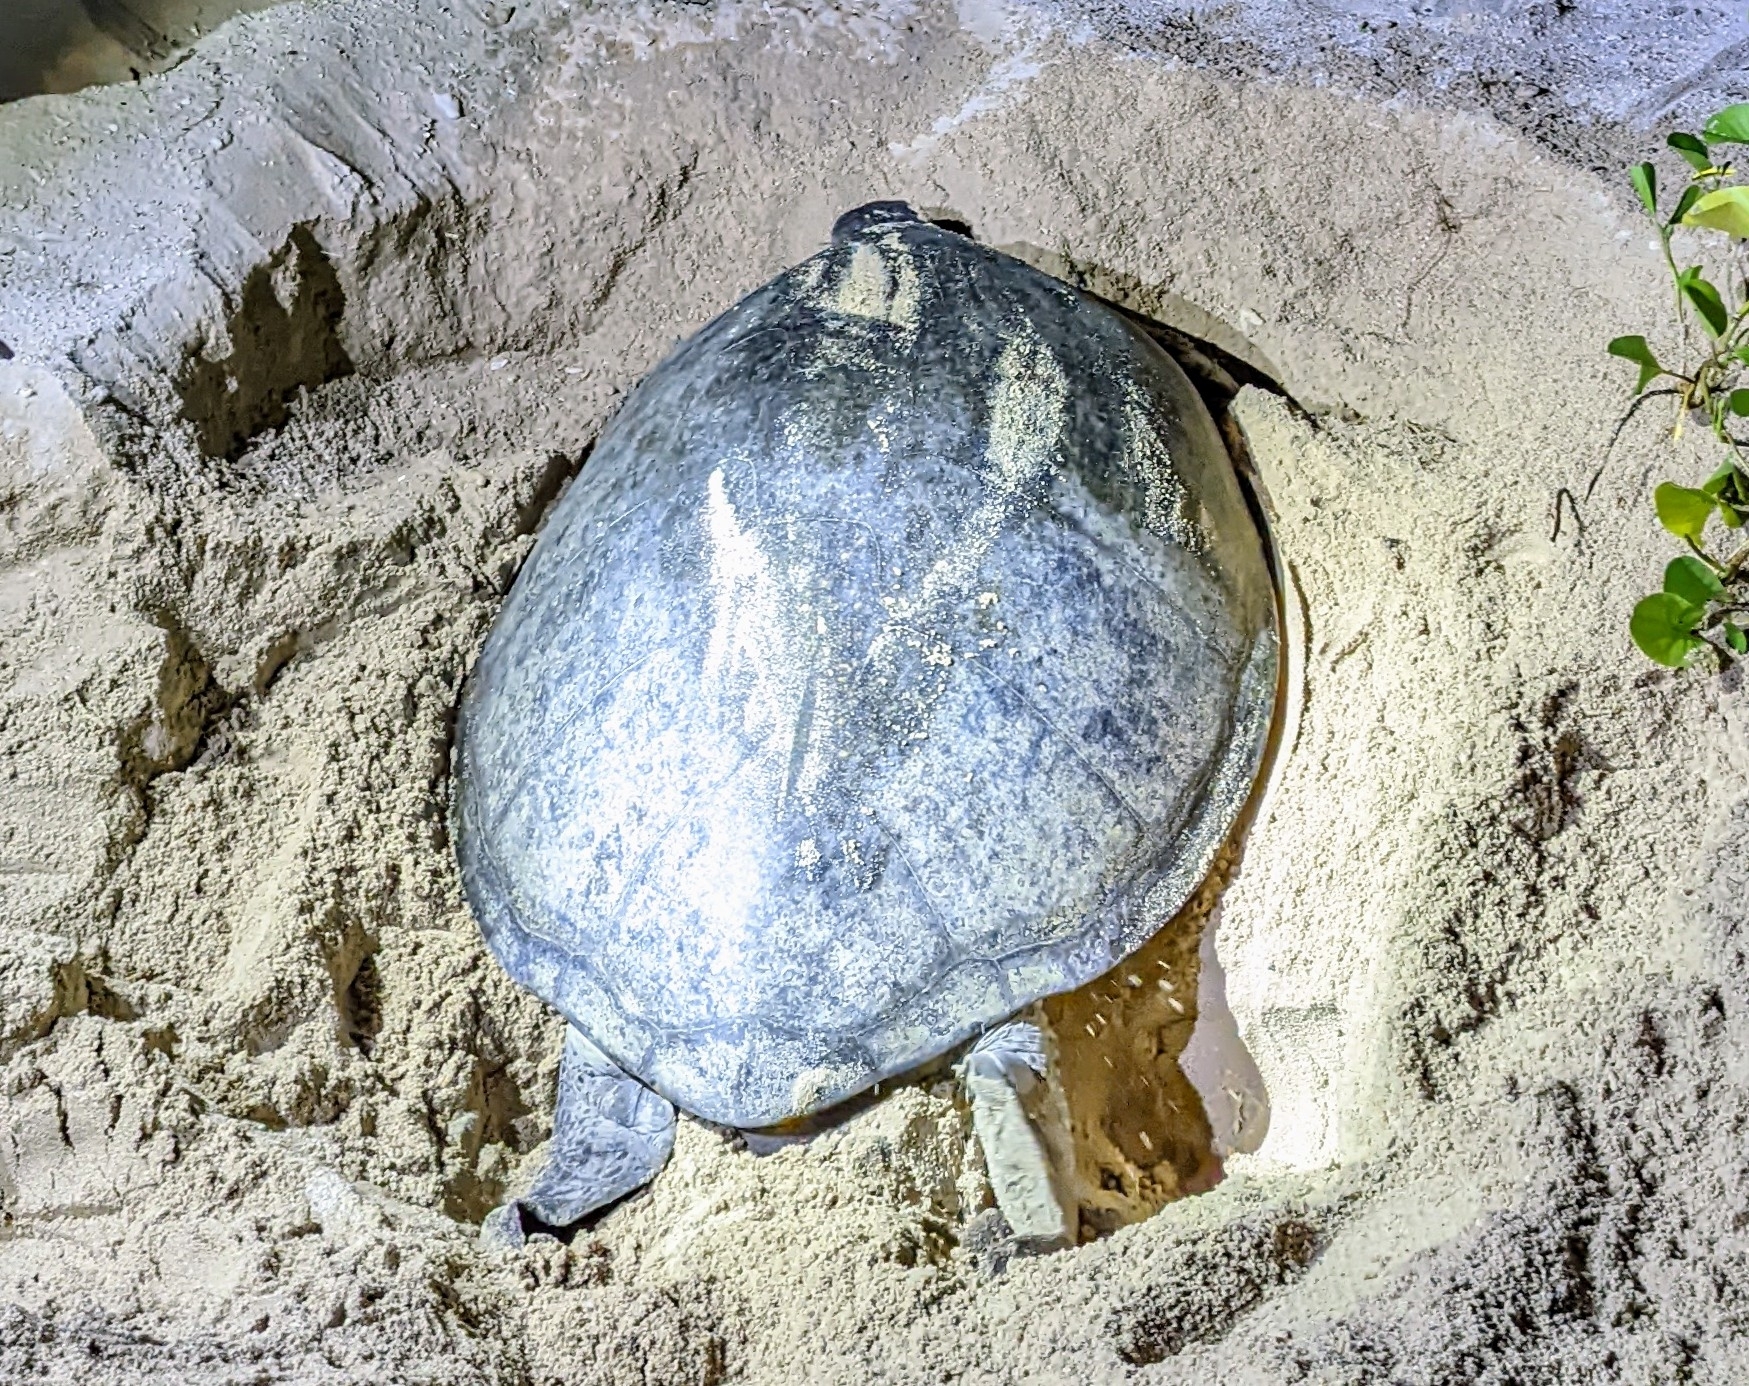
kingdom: Animalia
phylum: Chordata
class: Testudines
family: Cheloniidae
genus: Chelonia
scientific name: Chelonia mydas
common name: Green turtle
